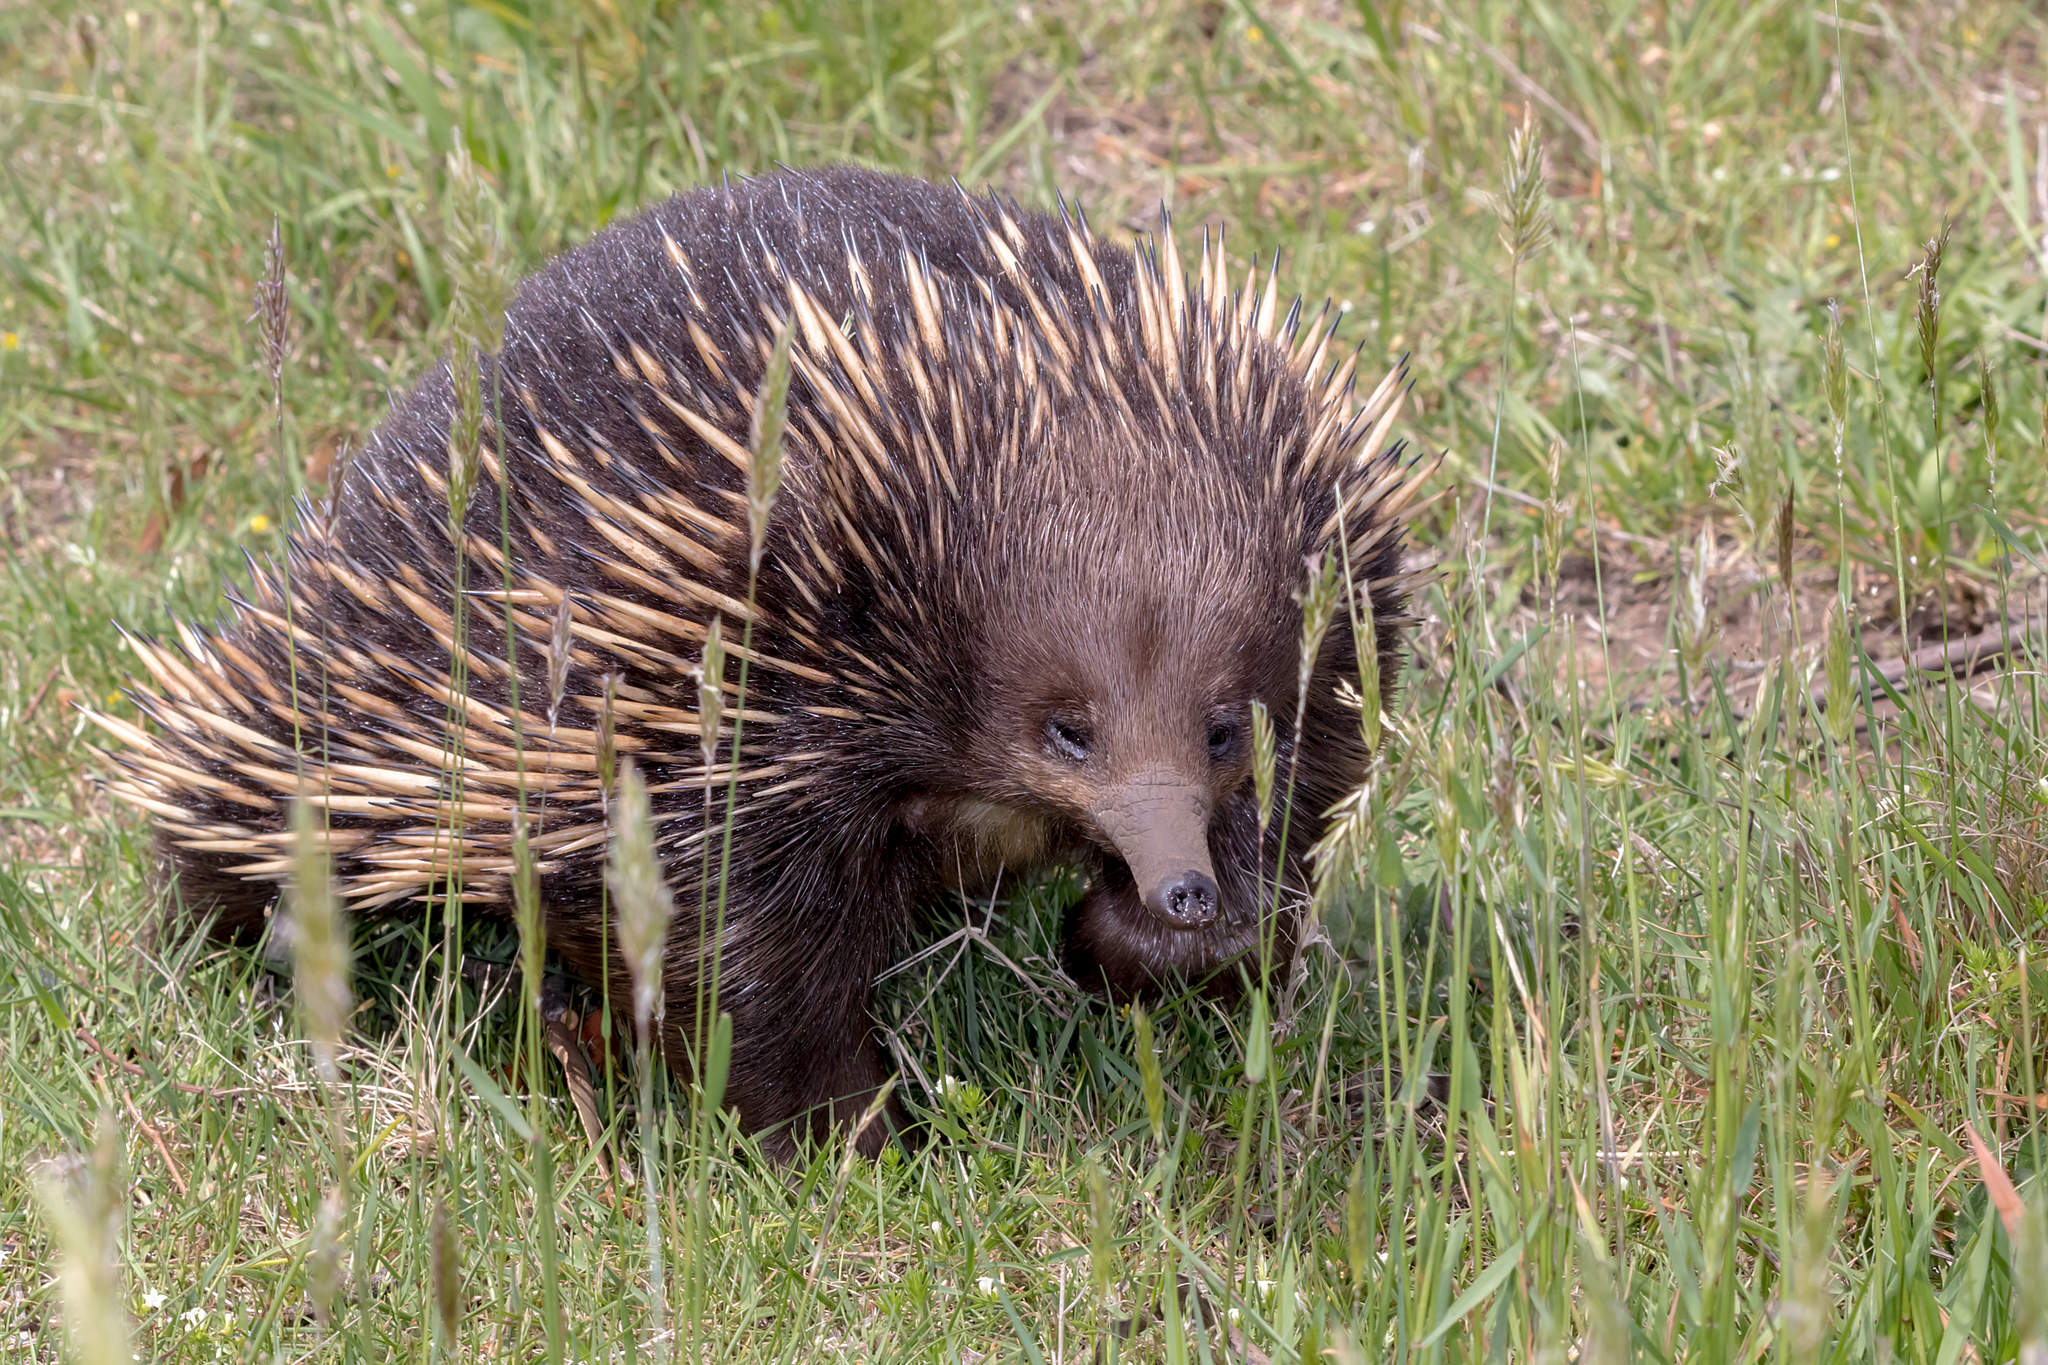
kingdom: Animalia
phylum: Chordata
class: Mammalia
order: Monotremata
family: Tachyglossidae
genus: Tachyglossus
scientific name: Tachyglossus aculeatus
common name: Short-beaked echidna
